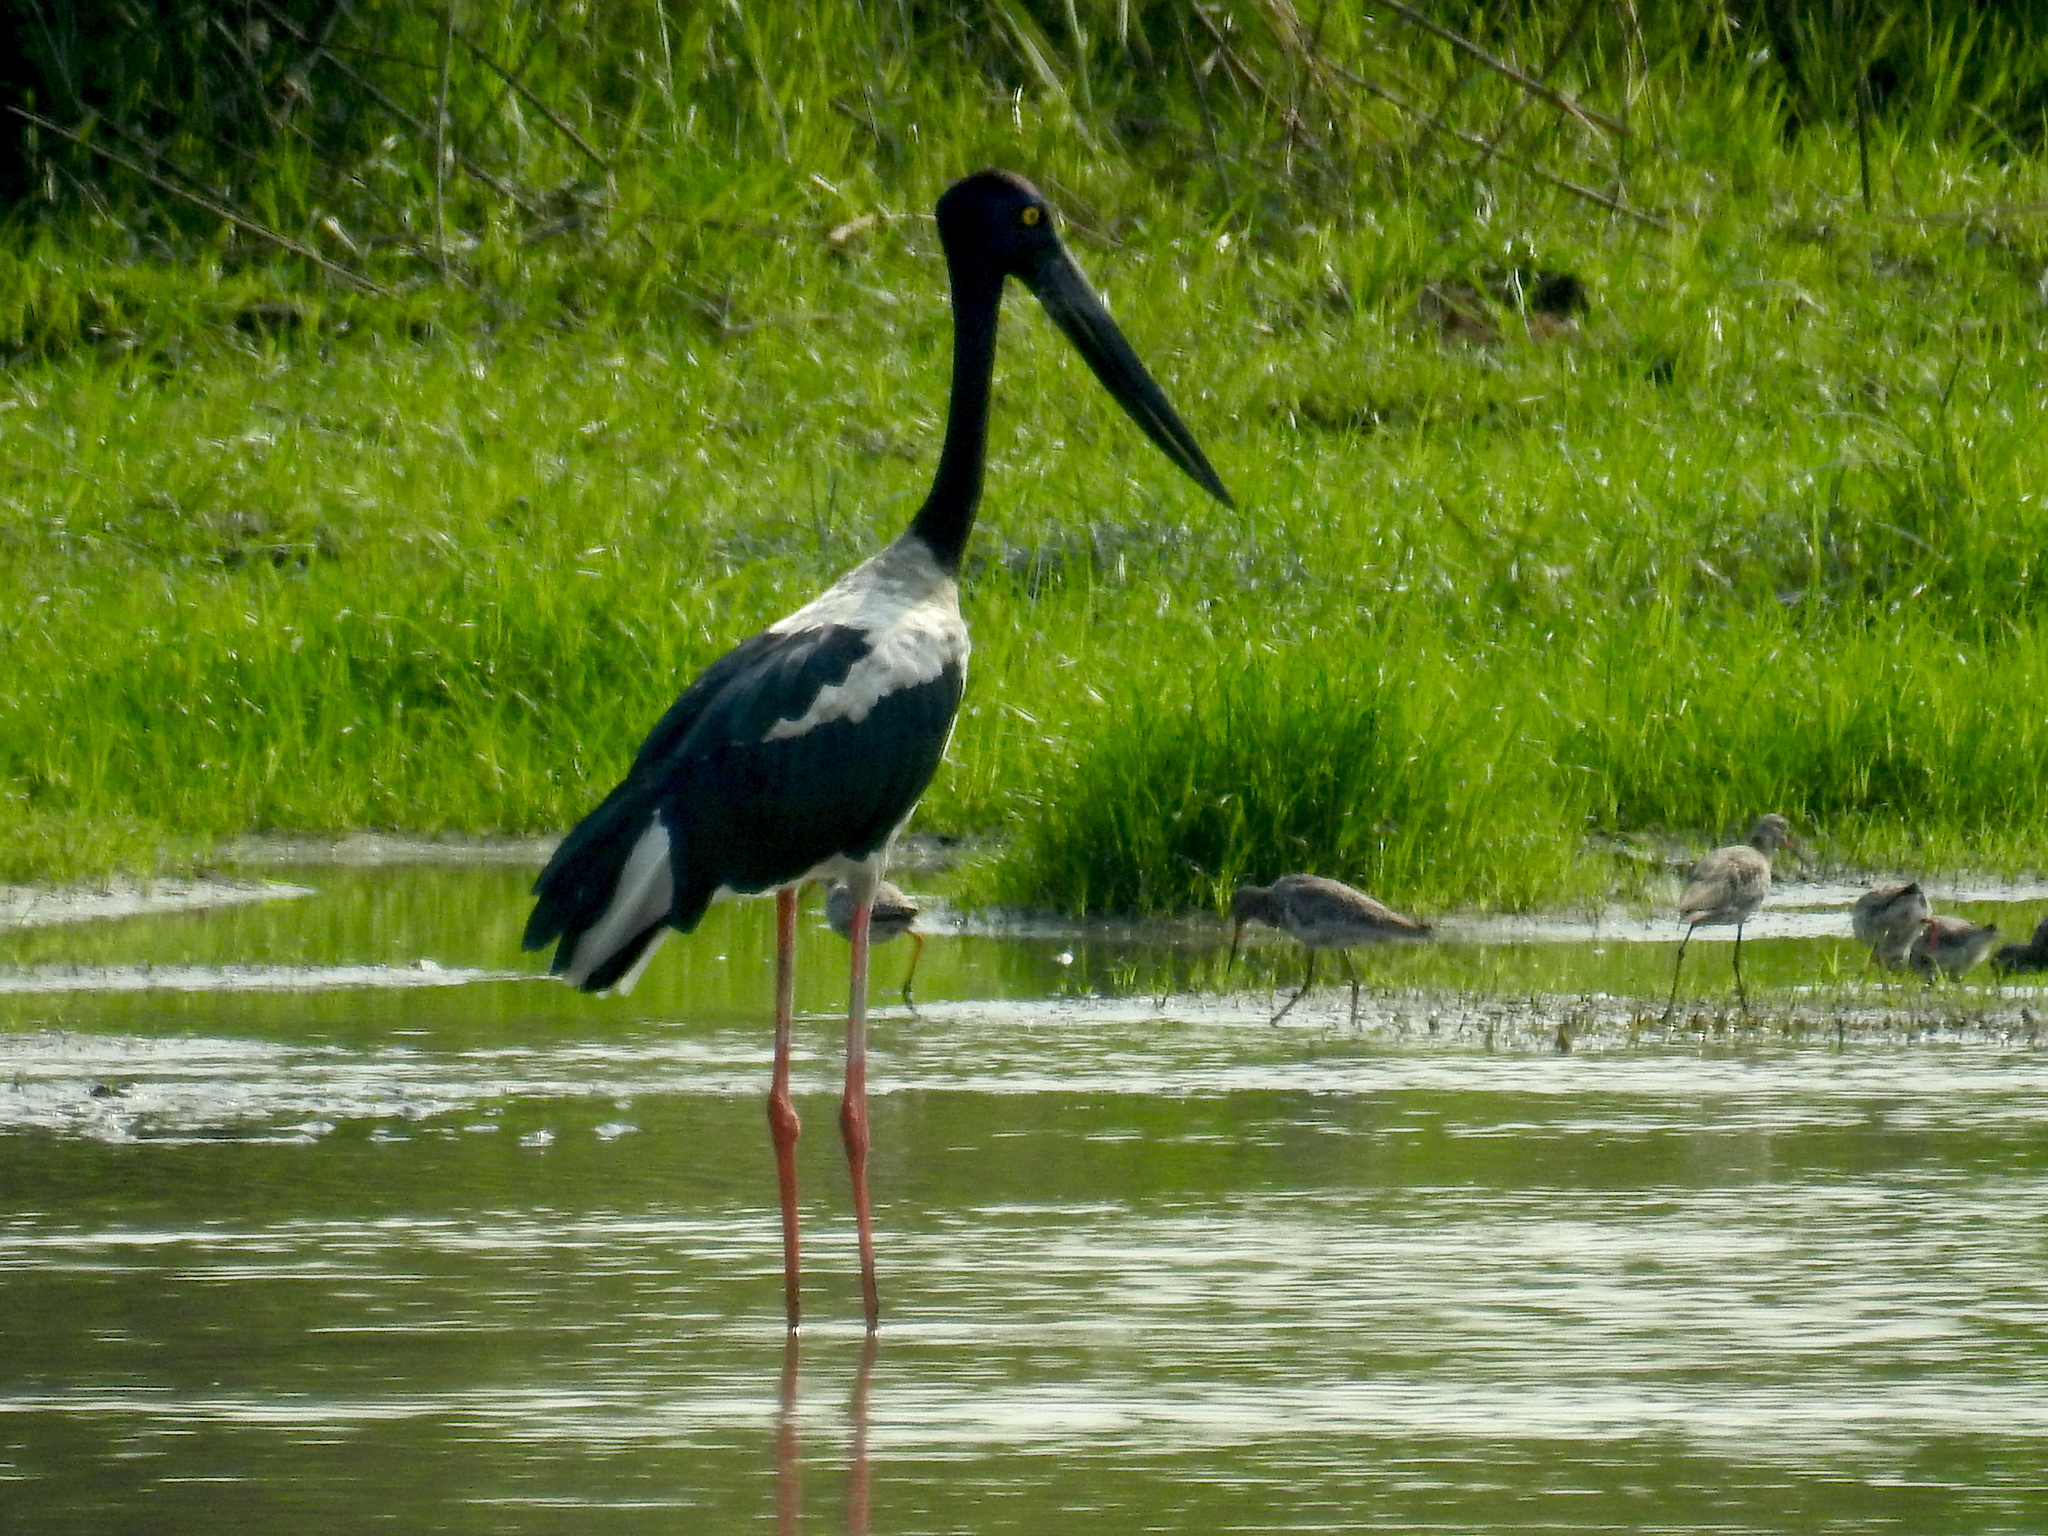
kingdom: Animalia
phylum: Chordata
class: Aves
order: Ciconiiformes
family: Ciconiidae
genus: Ephippiorhynchus
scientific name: Ephippiorhynchus asiaticus
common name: Black-necked stork
